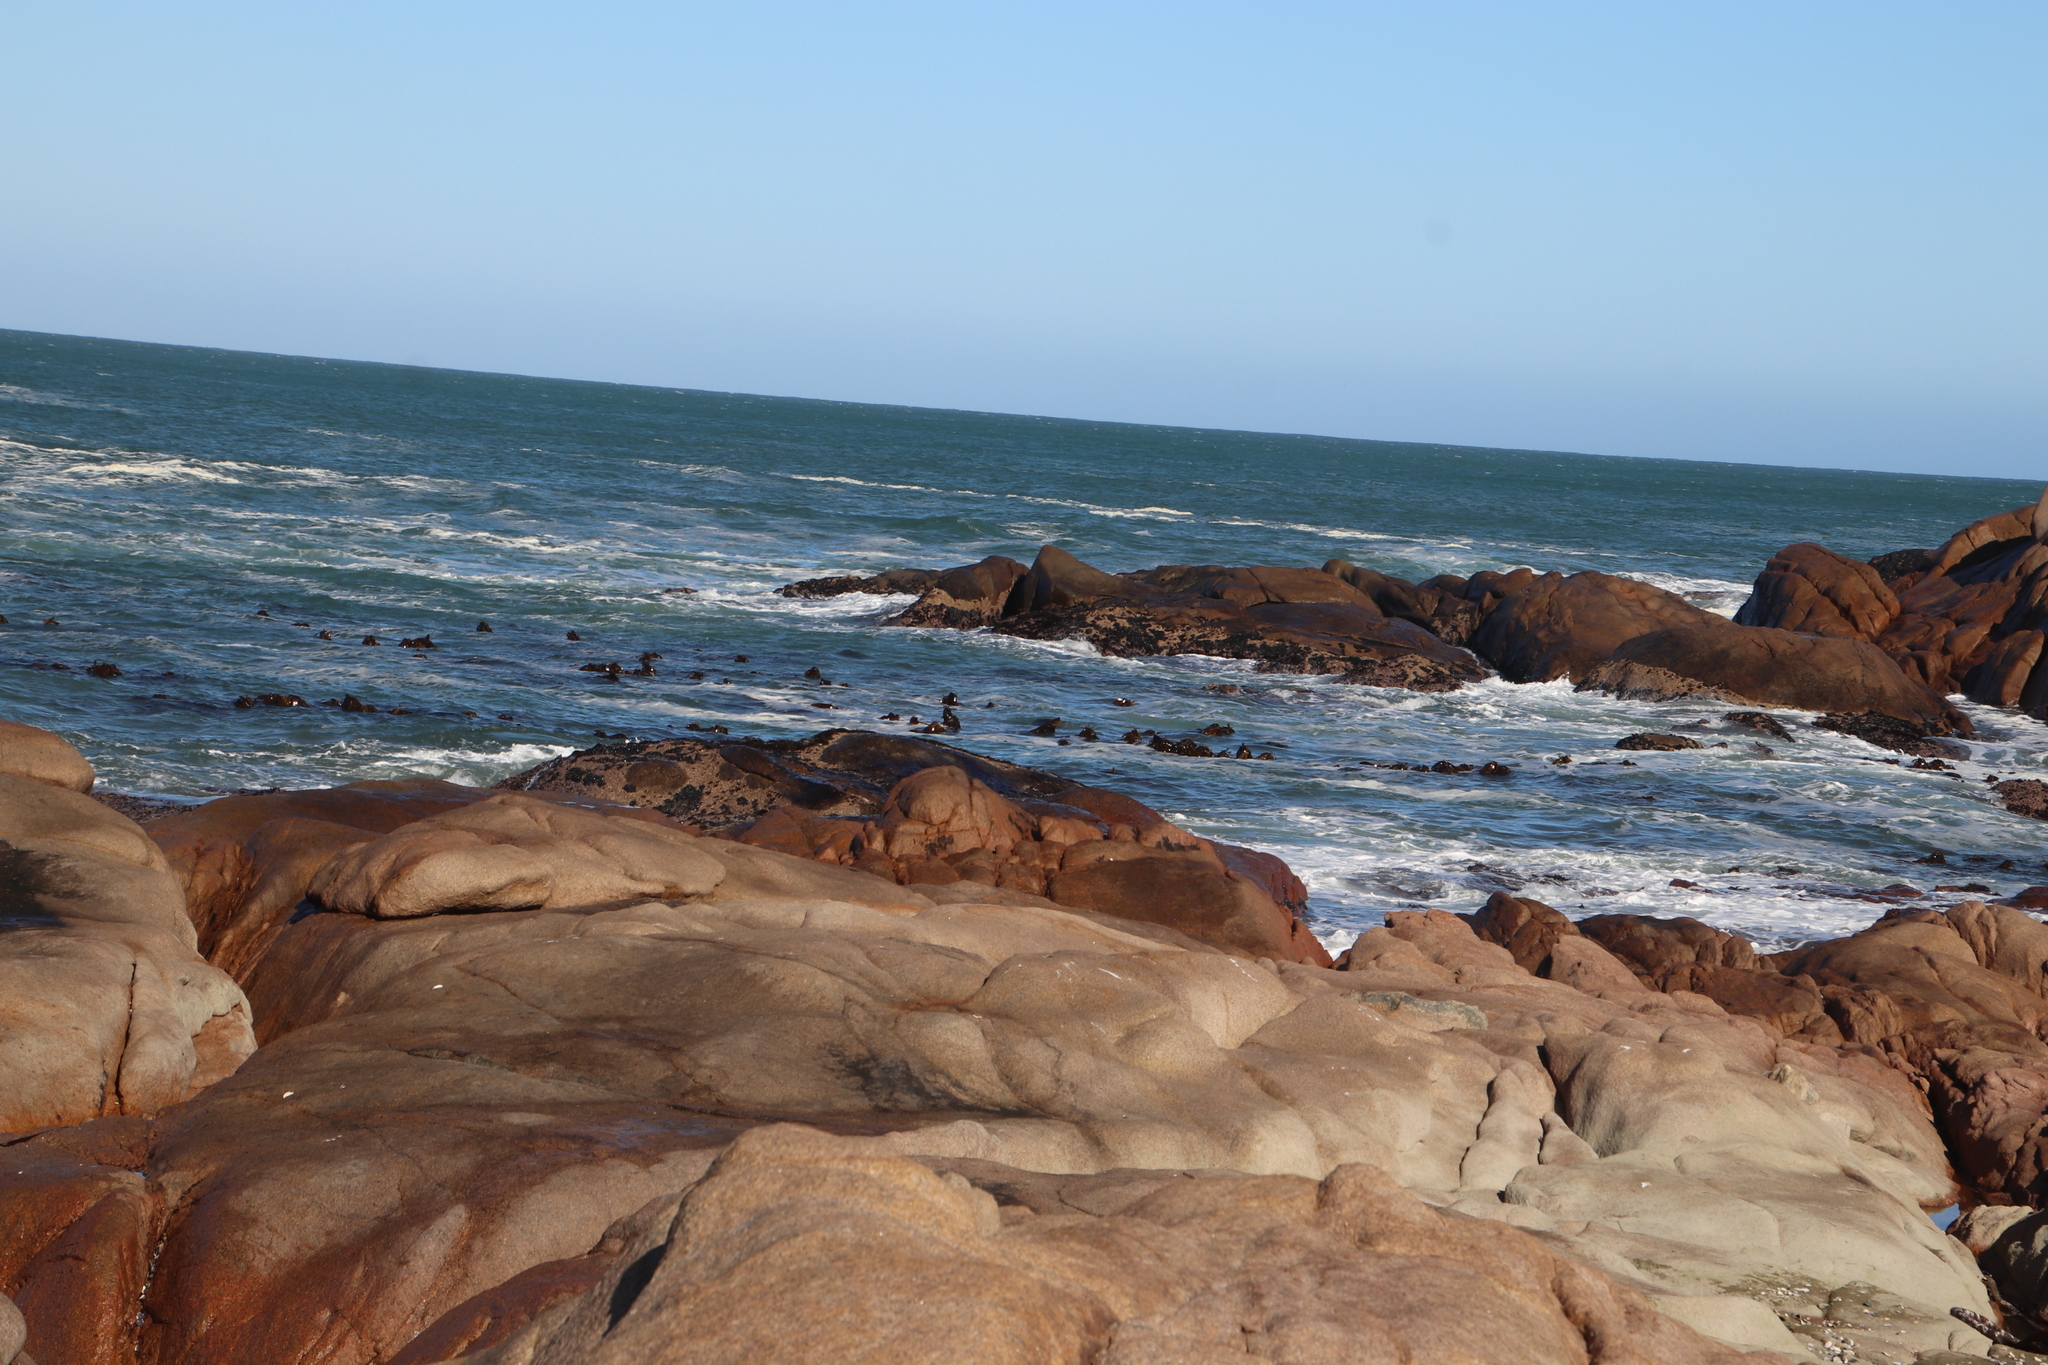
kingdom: Chromista
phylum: Ochrophyta
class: Phaeophyceae
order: Laminariales
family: Lessoniaceae
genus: Ecklonia
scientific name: Ecklonia
